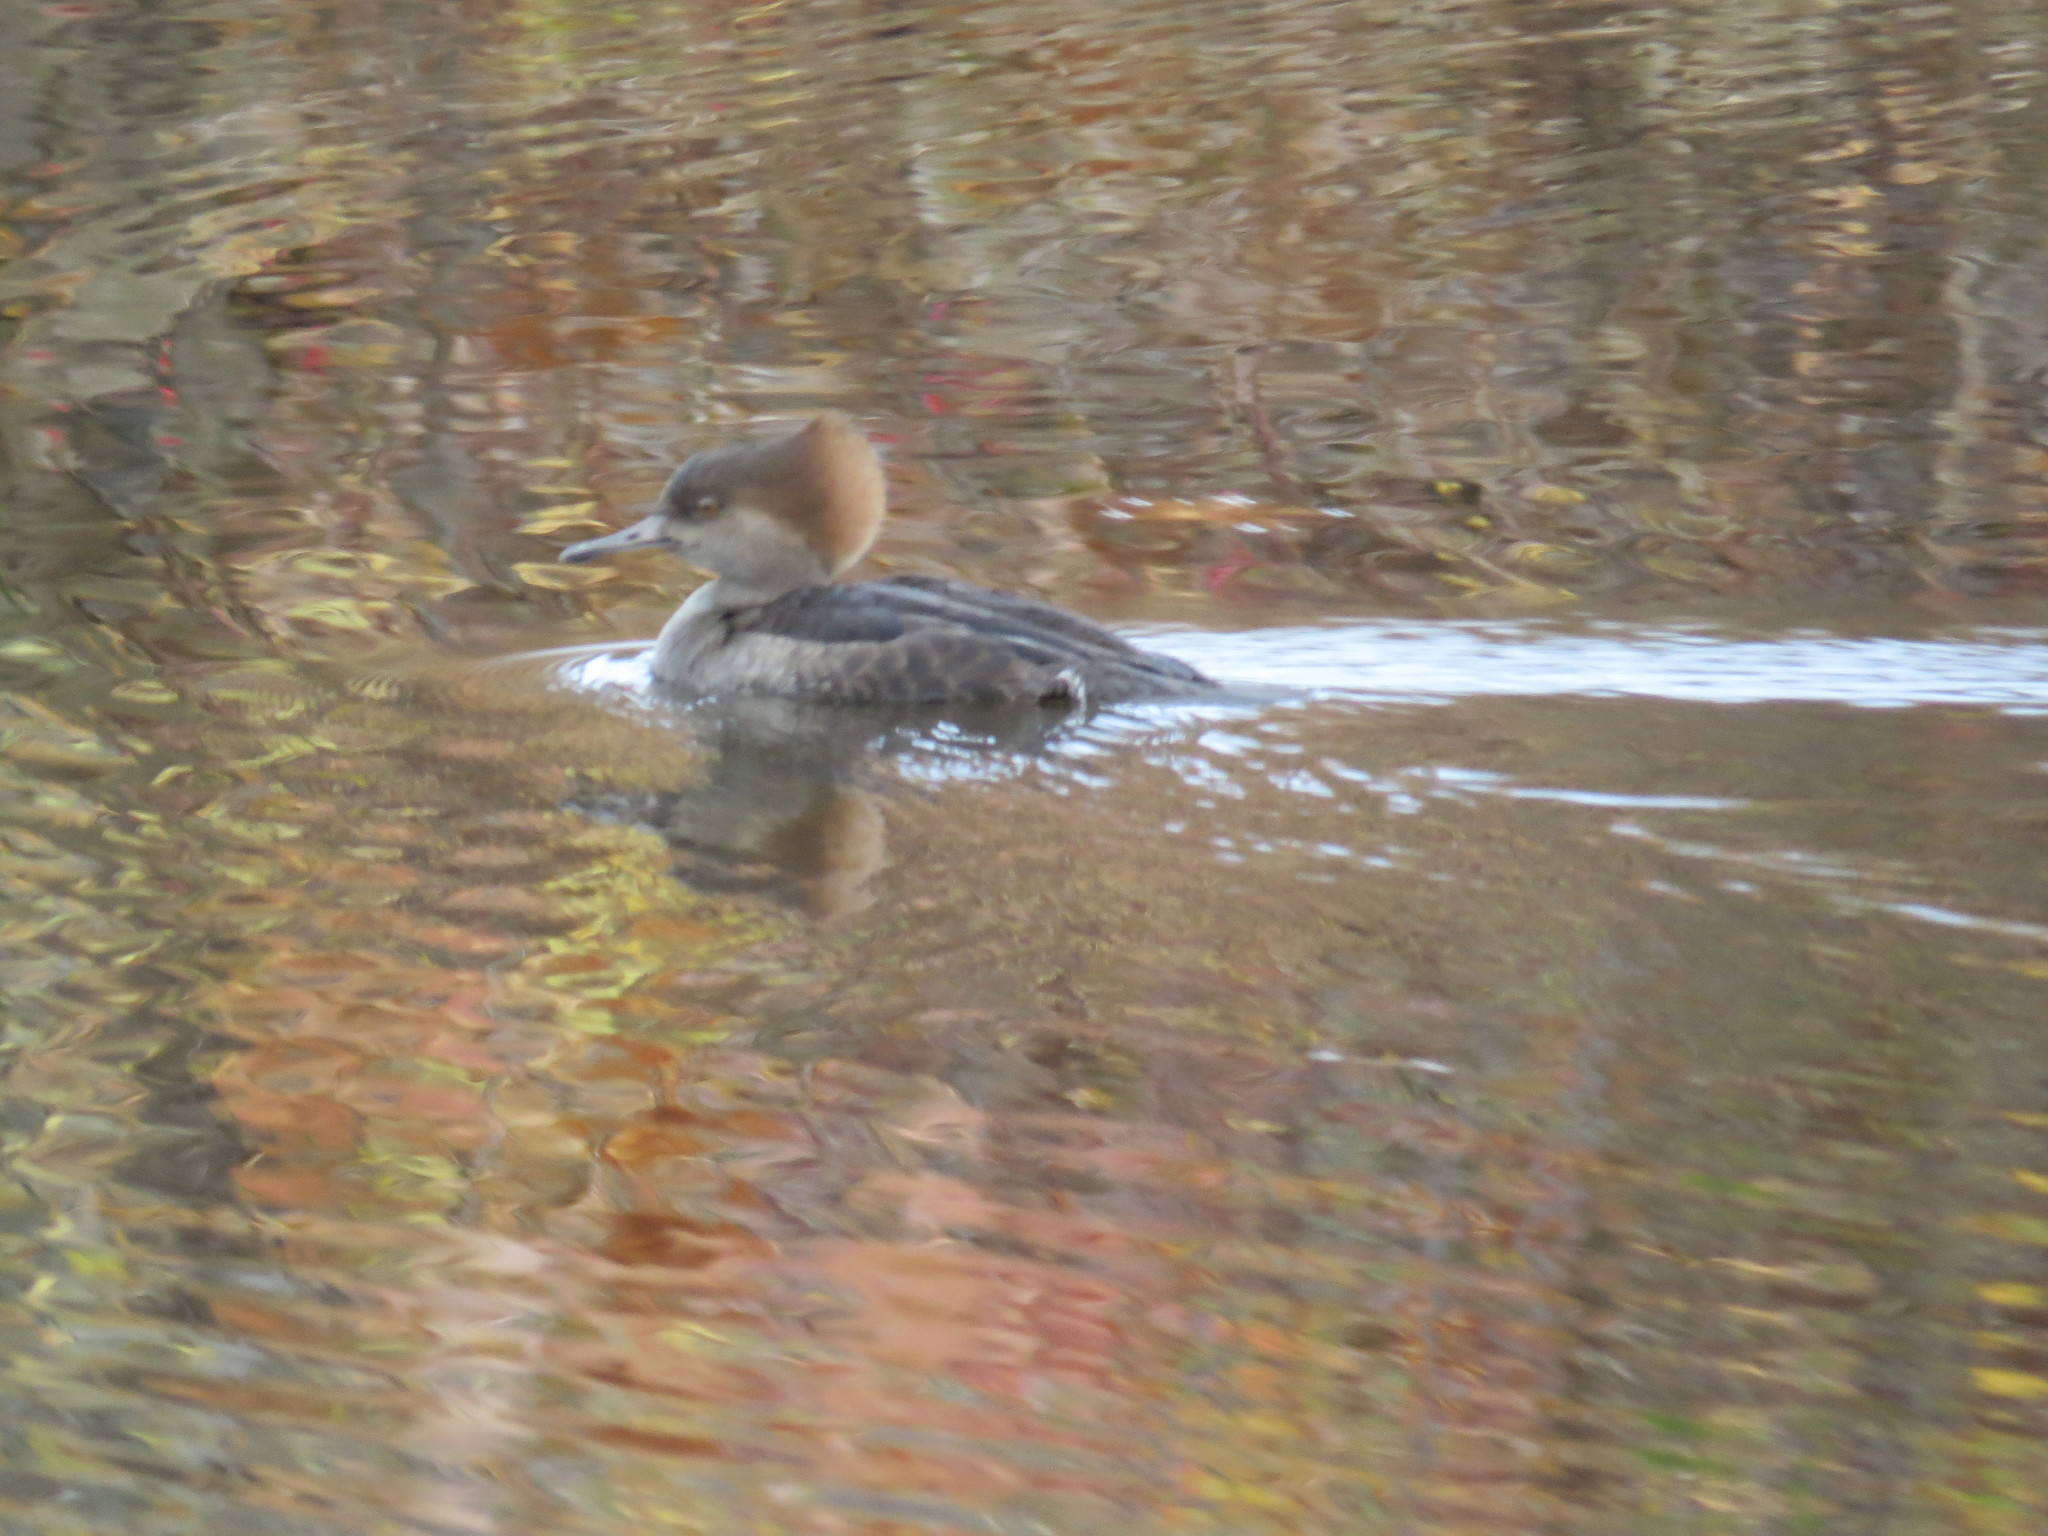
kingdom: Animalia
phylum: Chordata
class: Aves
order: Anseriformes
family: Anatidae
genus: Lophodytes
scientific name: Lophodytes cucullatus
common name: Hooded merganser
